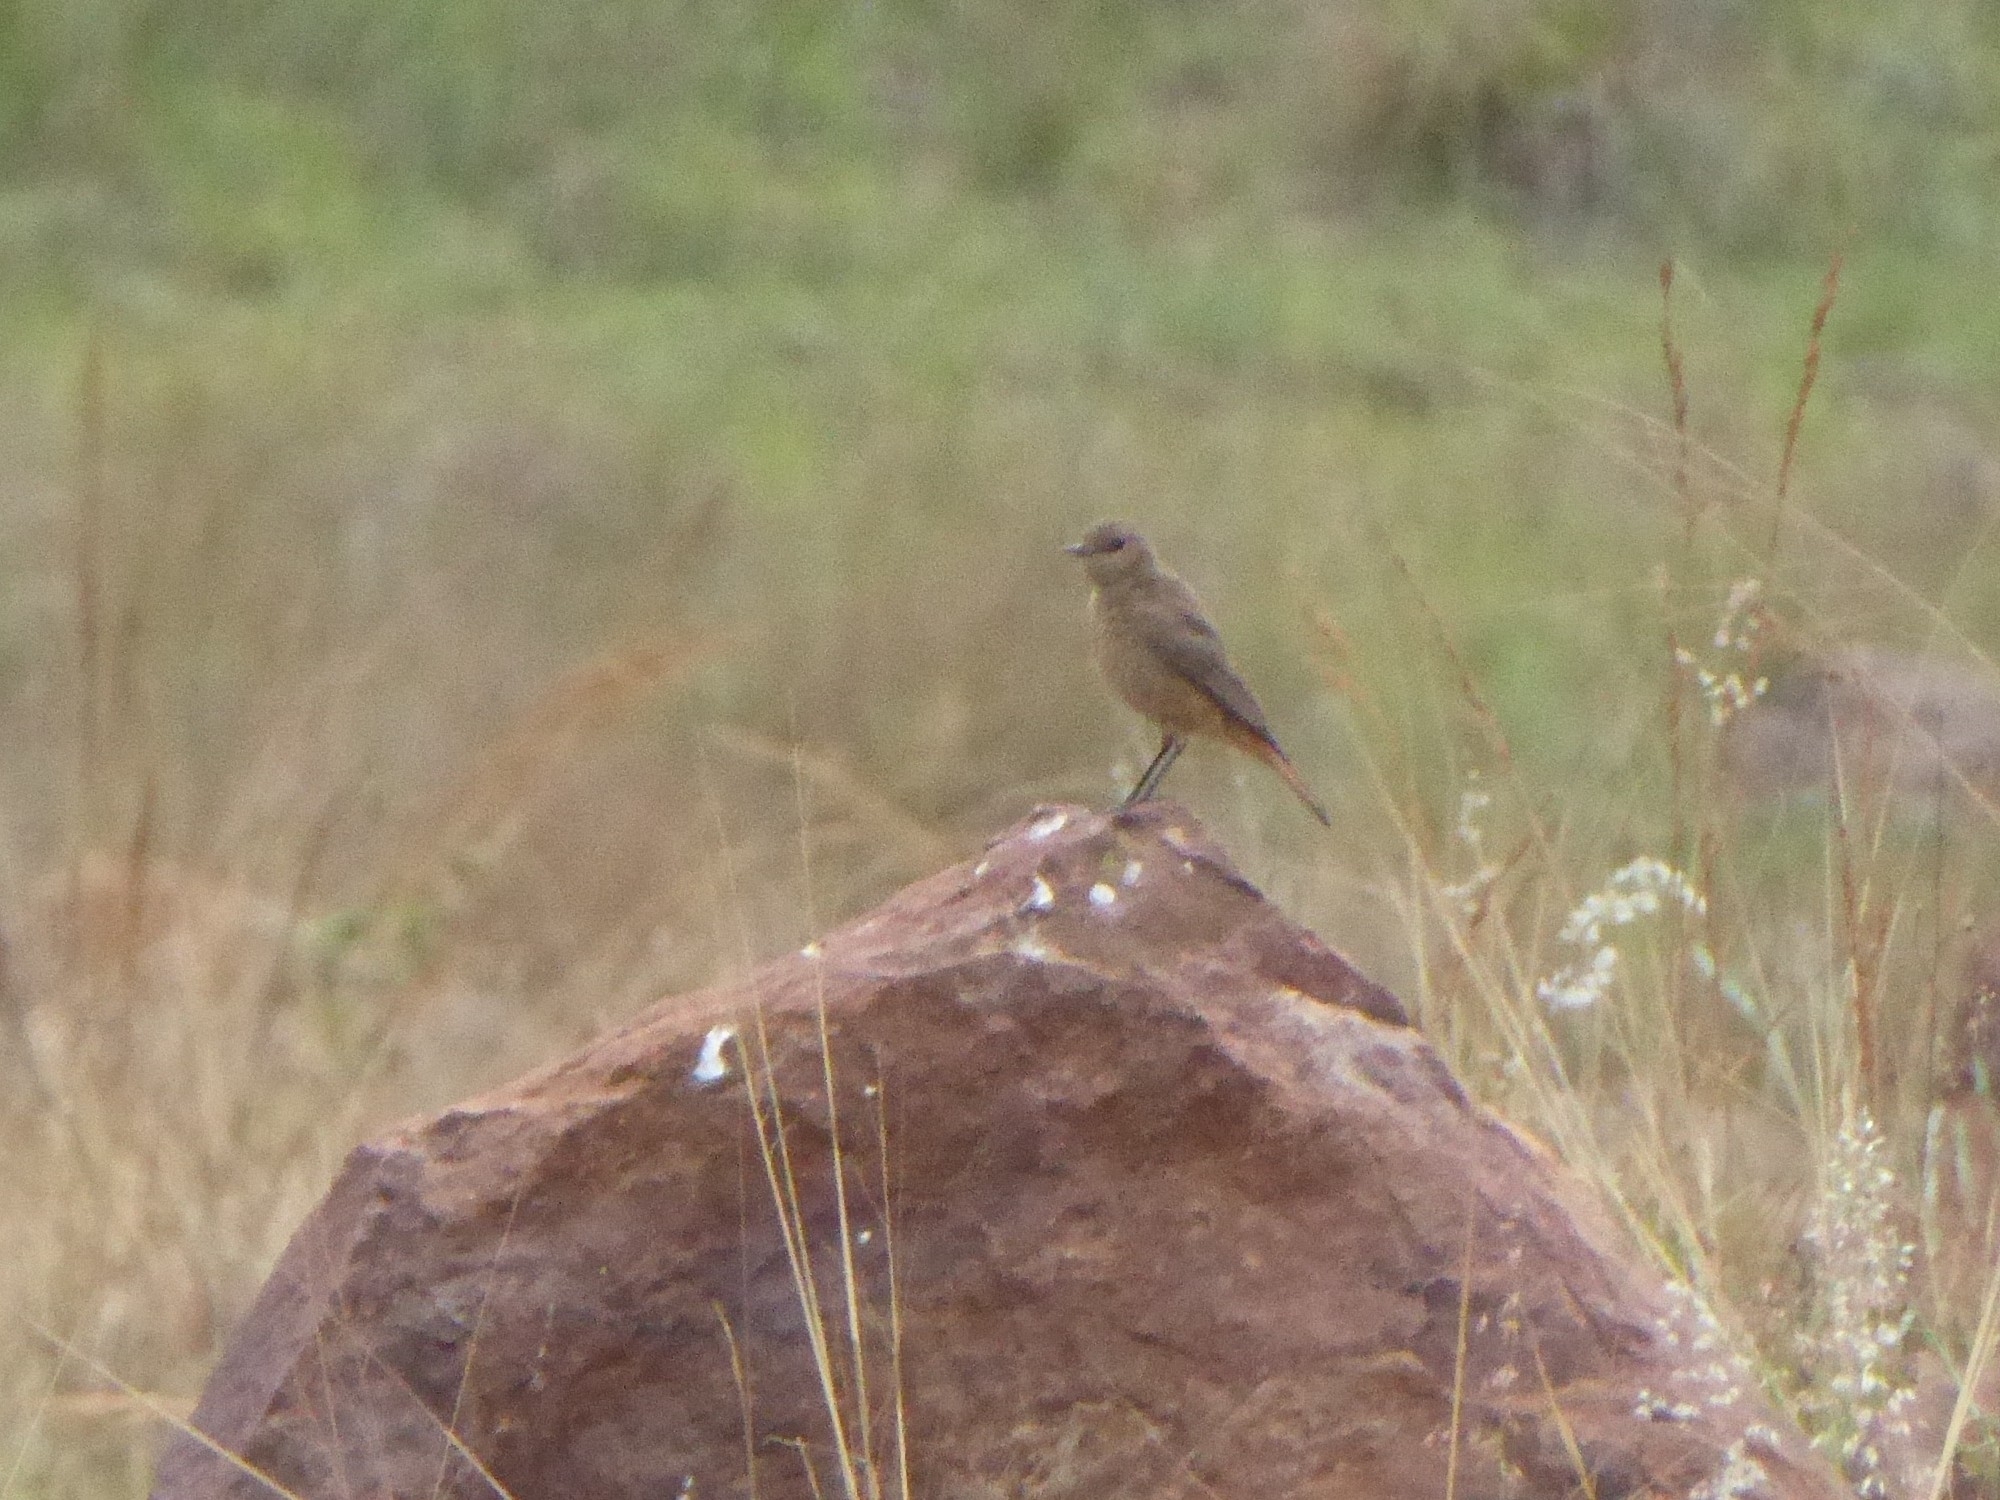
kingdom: Animalia
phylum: Chordata
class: Aves
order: Passeriformes
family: Muscicapidae
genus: Oenanthe
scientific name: Oenanthe familiaris
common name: Familiar chat
